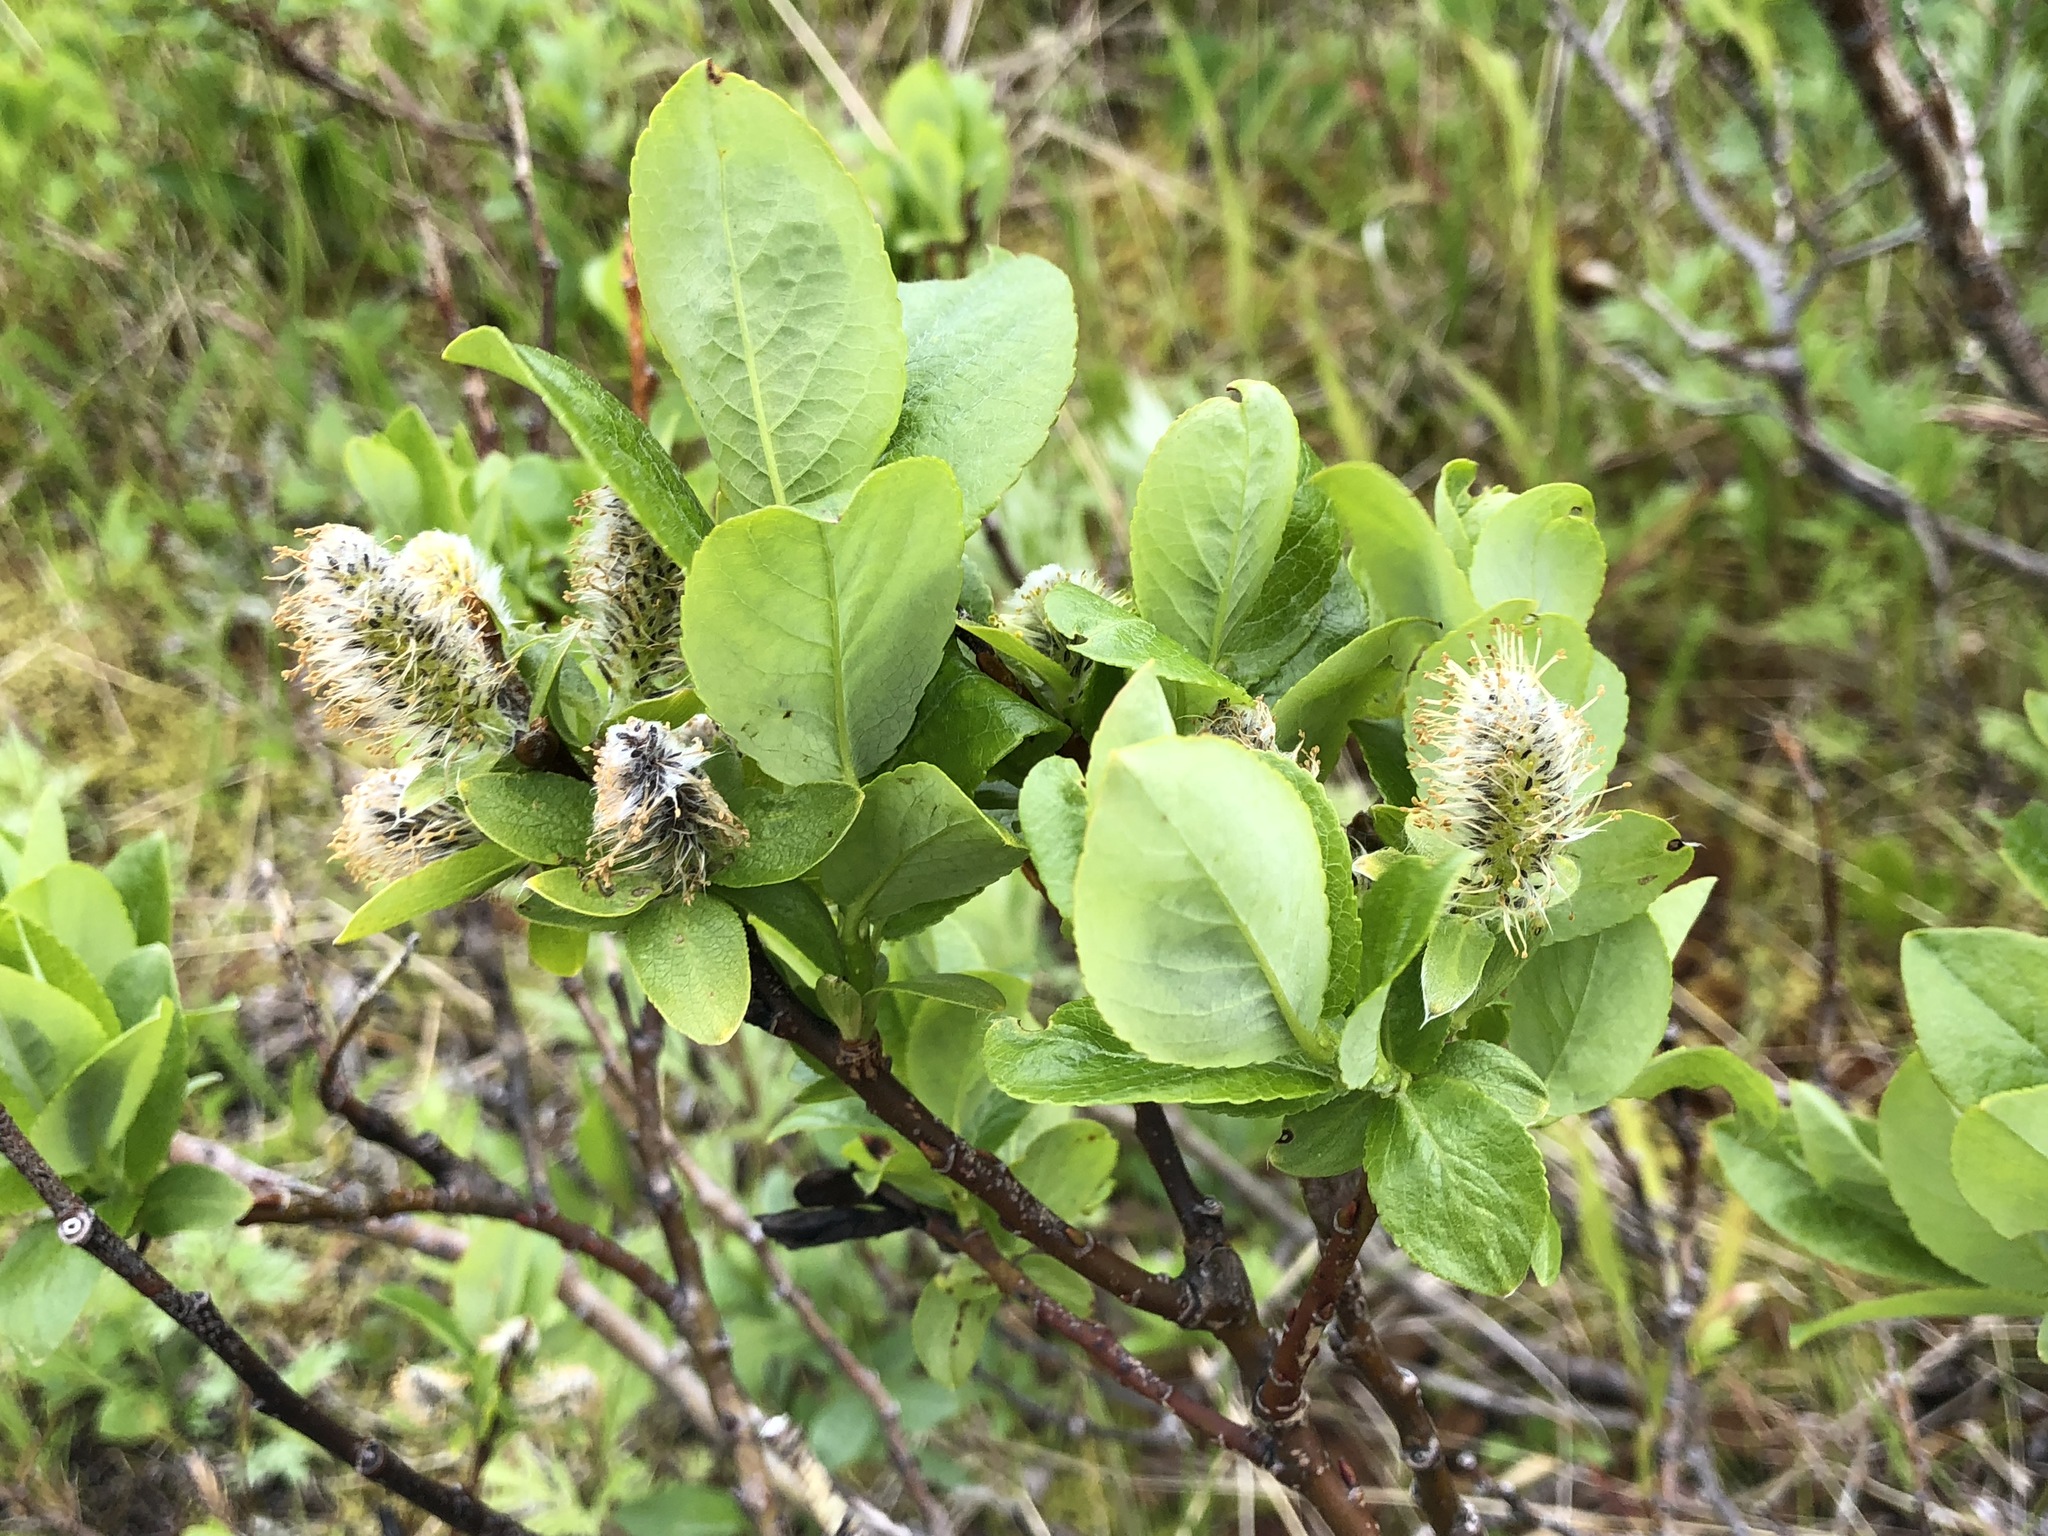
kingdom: Plantae
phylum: Tracheophyta
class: Magnoliopsida
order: Malpighiales
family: Salicaceae
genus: Salix
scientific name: Salix barclayi
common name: Mountain willow
